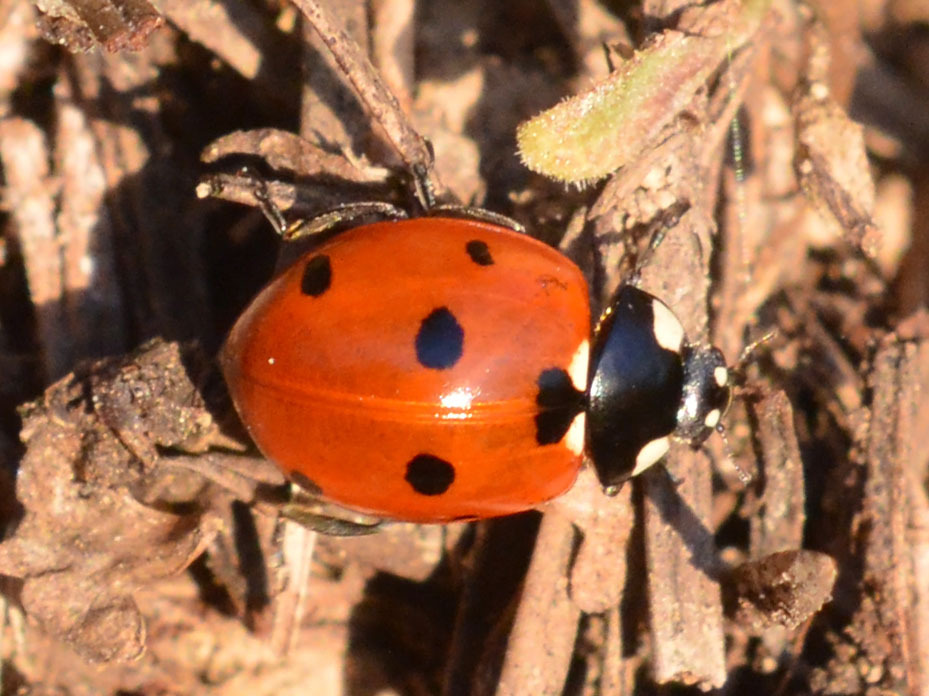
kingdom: Animalia
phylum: Arthropoda
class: Insecta
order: Coleoptera
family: Coccinellidae
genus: Coccinella
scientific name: Coccinella septempunctata
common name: Sevenspotted lady beetle
